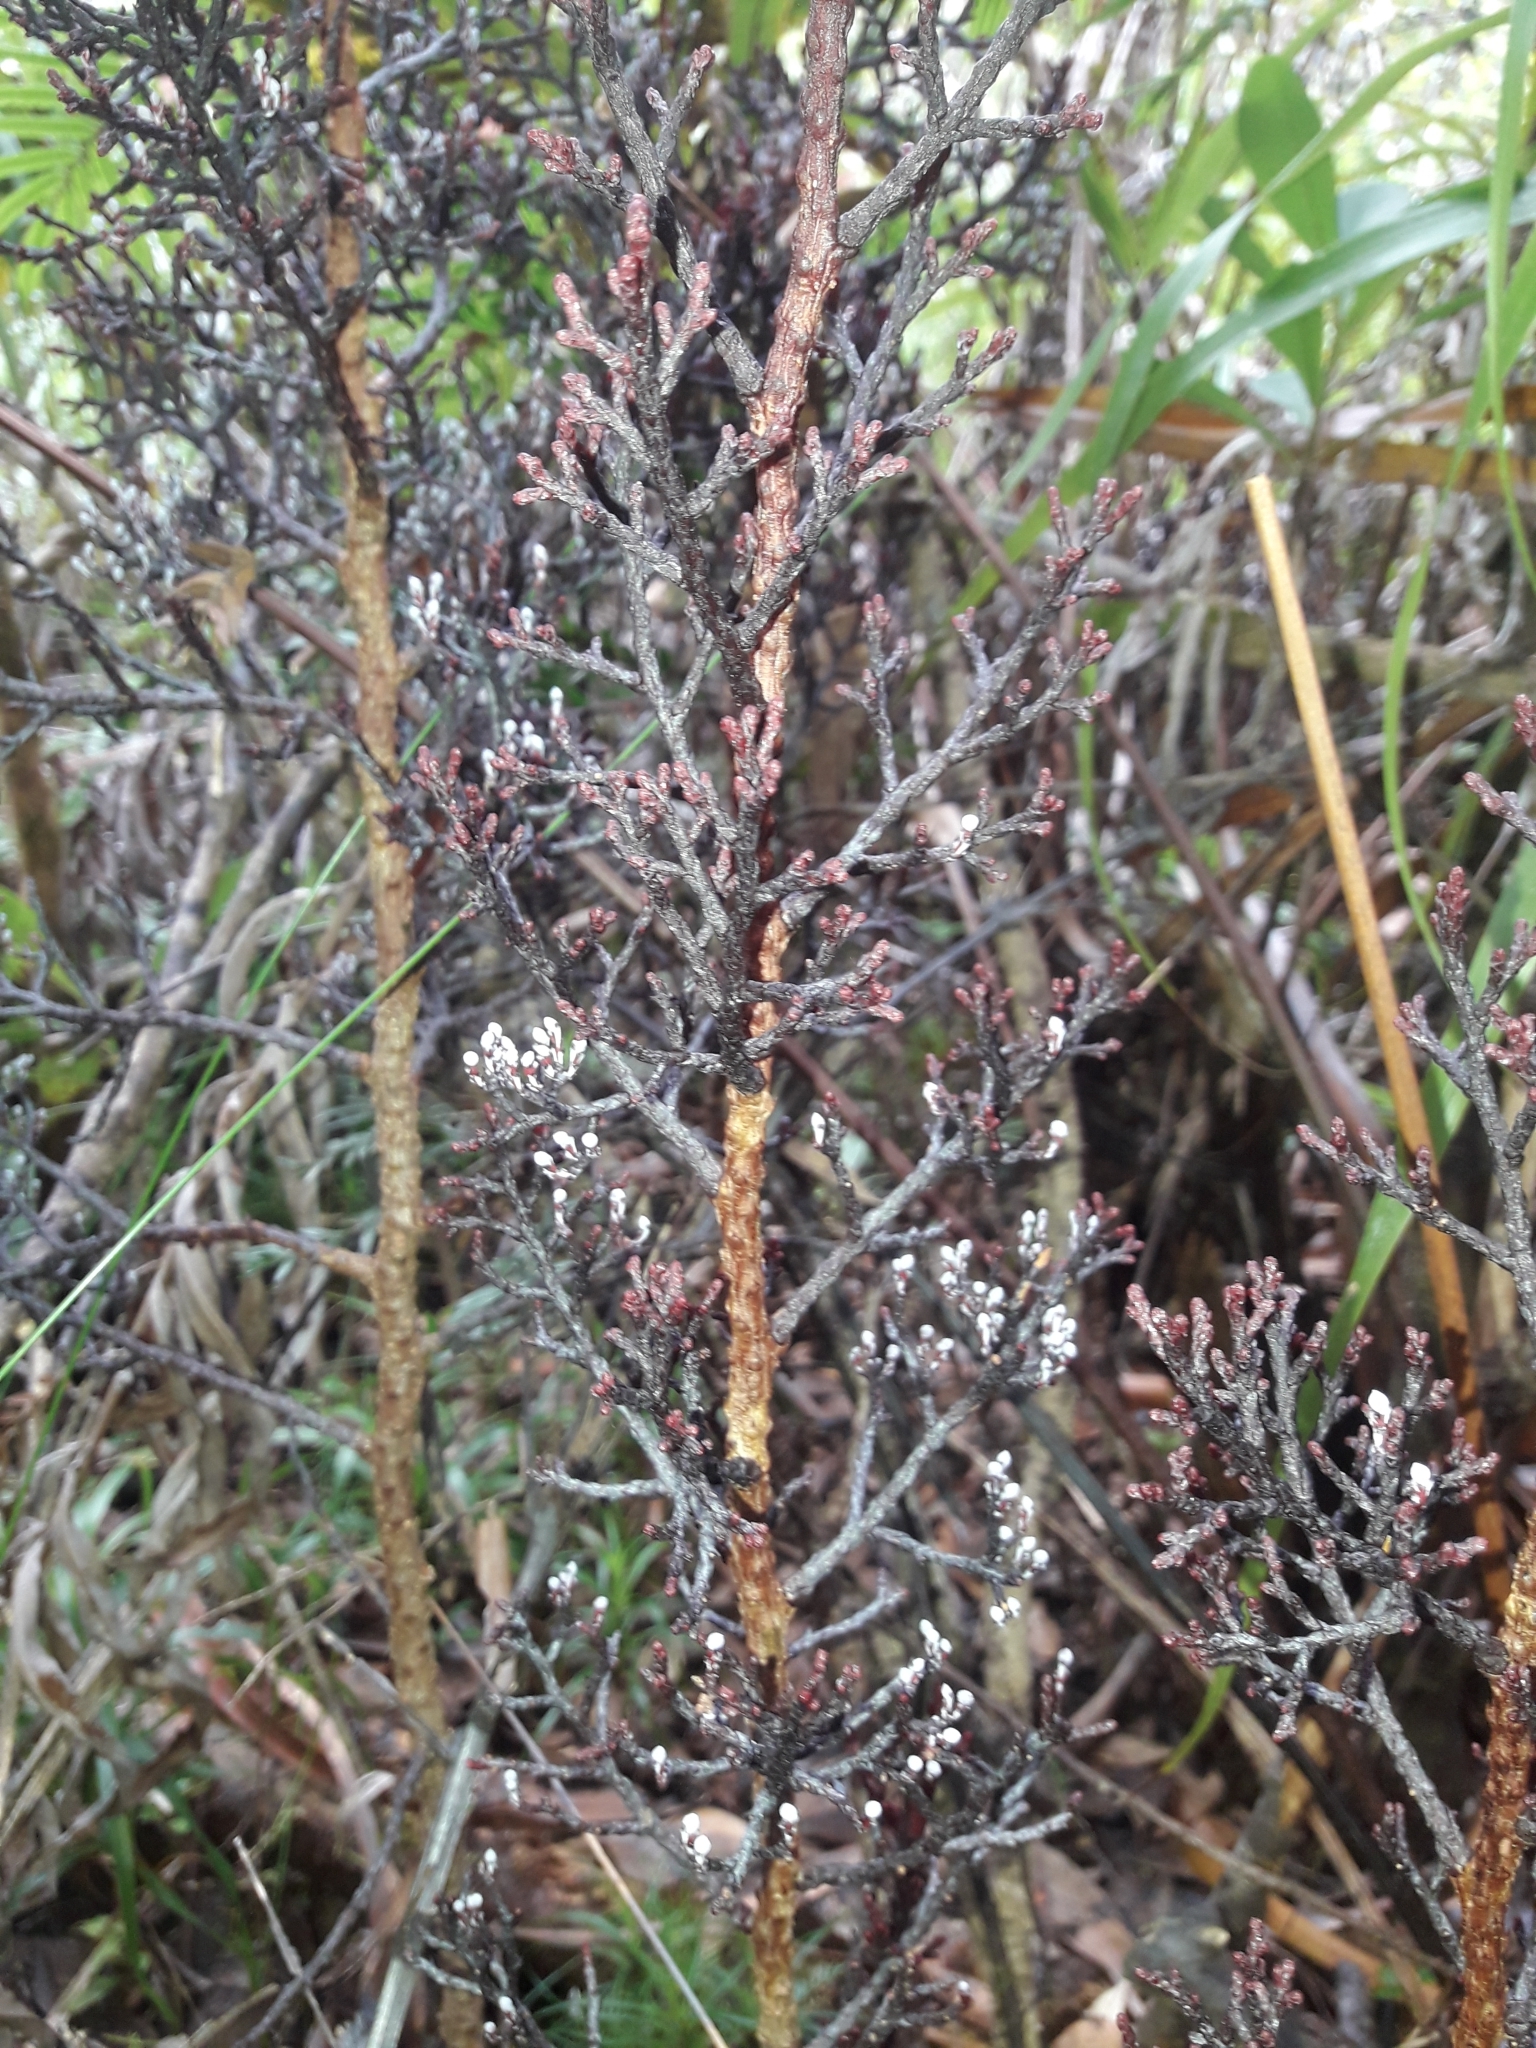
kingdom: Plantae
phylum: Tracheophyta
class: Pinopsida
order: Pinales
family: Podocarpaceae
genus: Parasitaxus
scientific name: Parasitaxus usta
